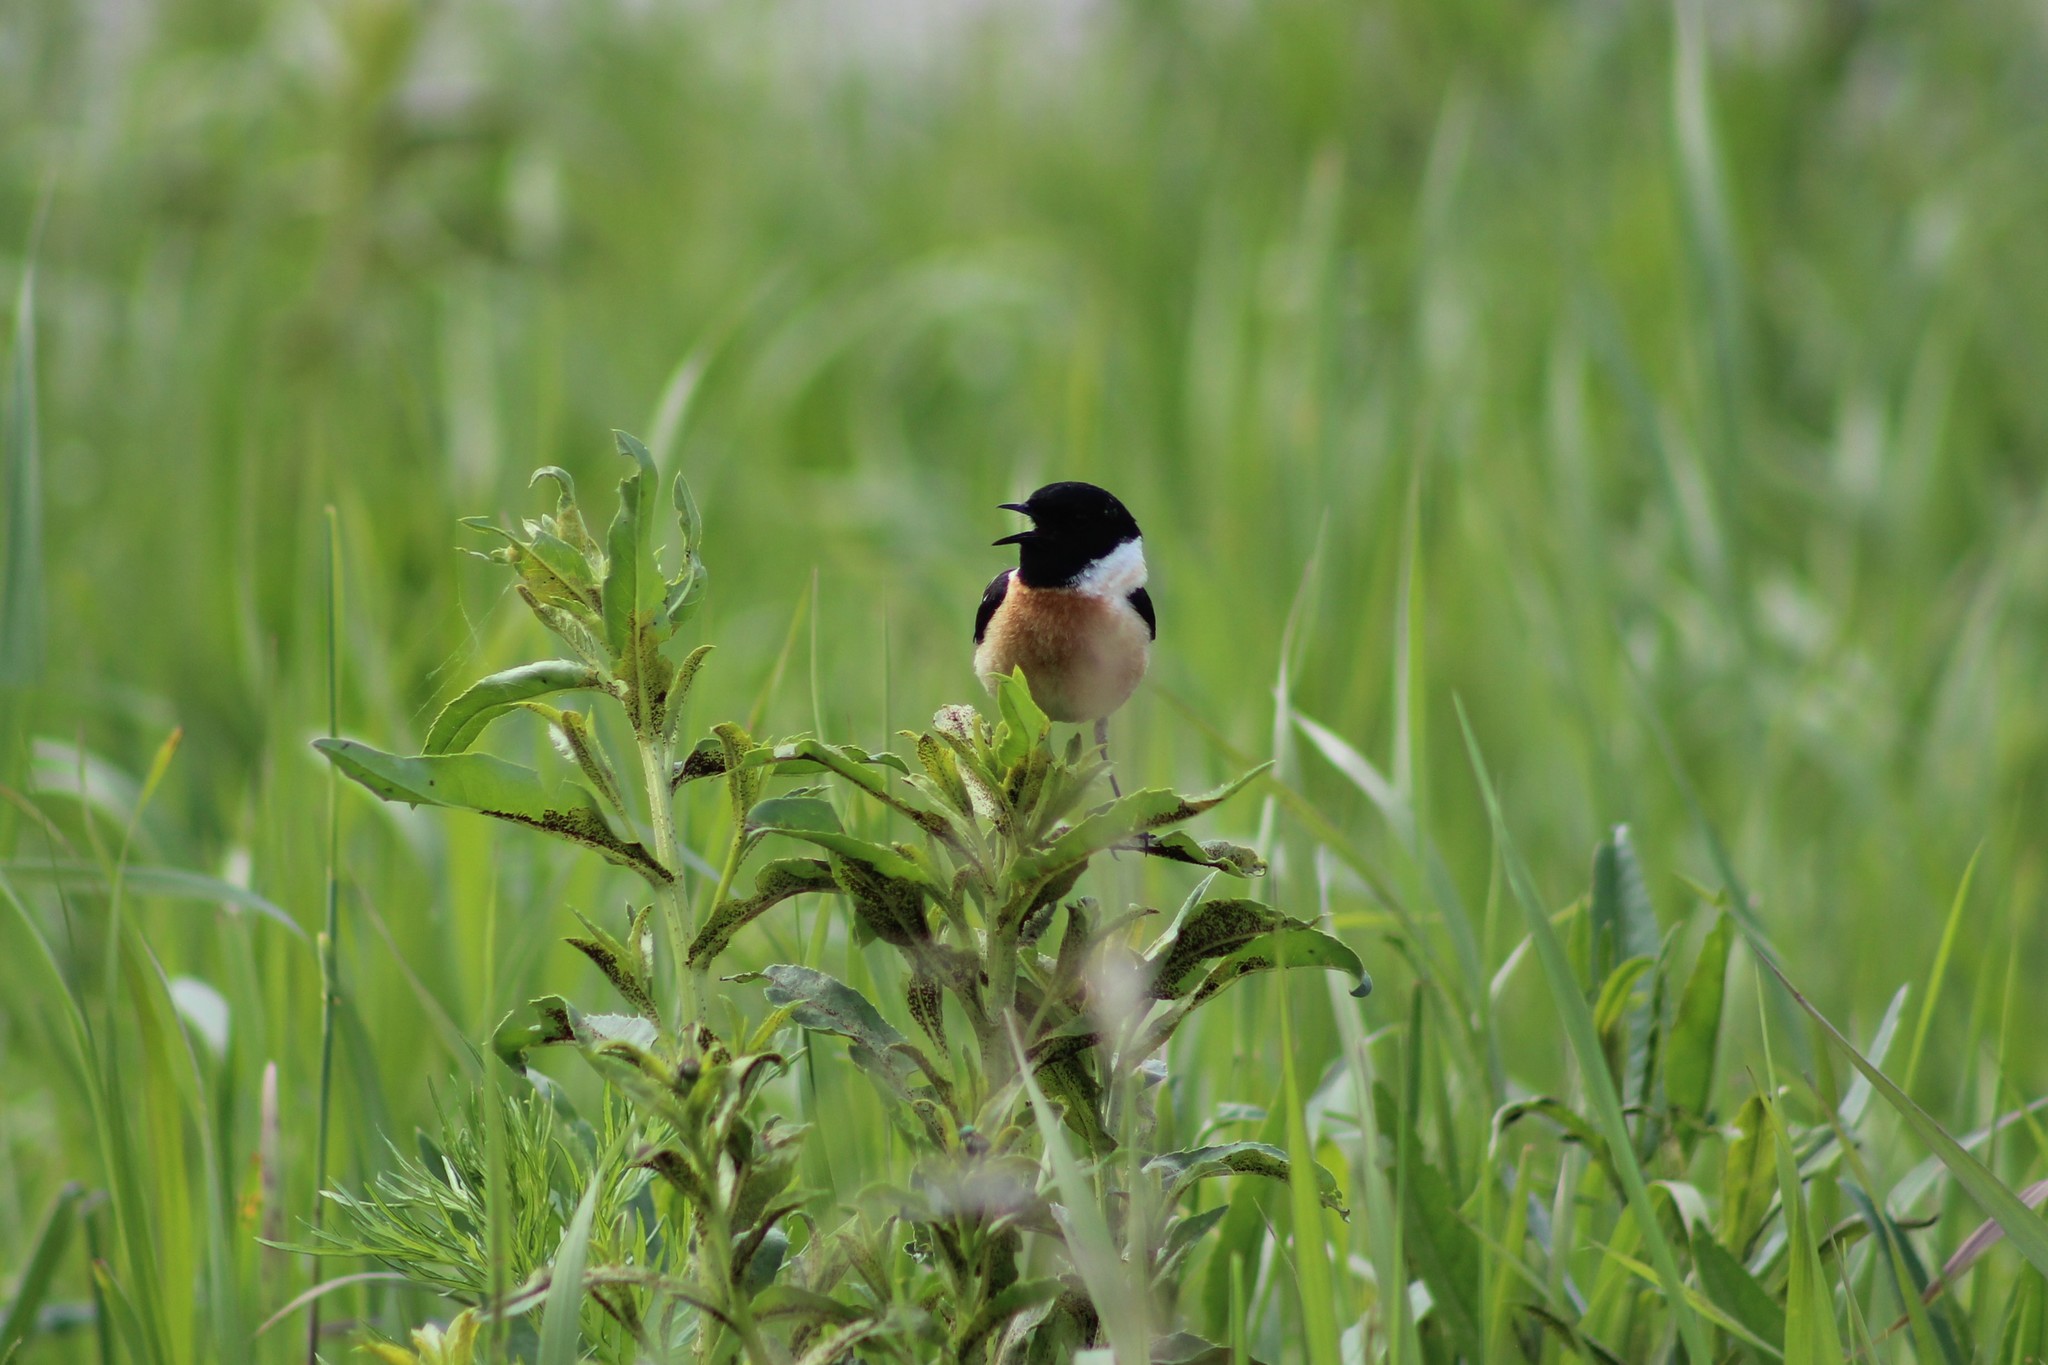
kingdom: Animalia
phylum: Chordata
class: Aves
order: Passeriformes
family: Muscicapidae
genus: Saxicola
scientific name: Saxicola maurus
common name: Siberian stonechat
